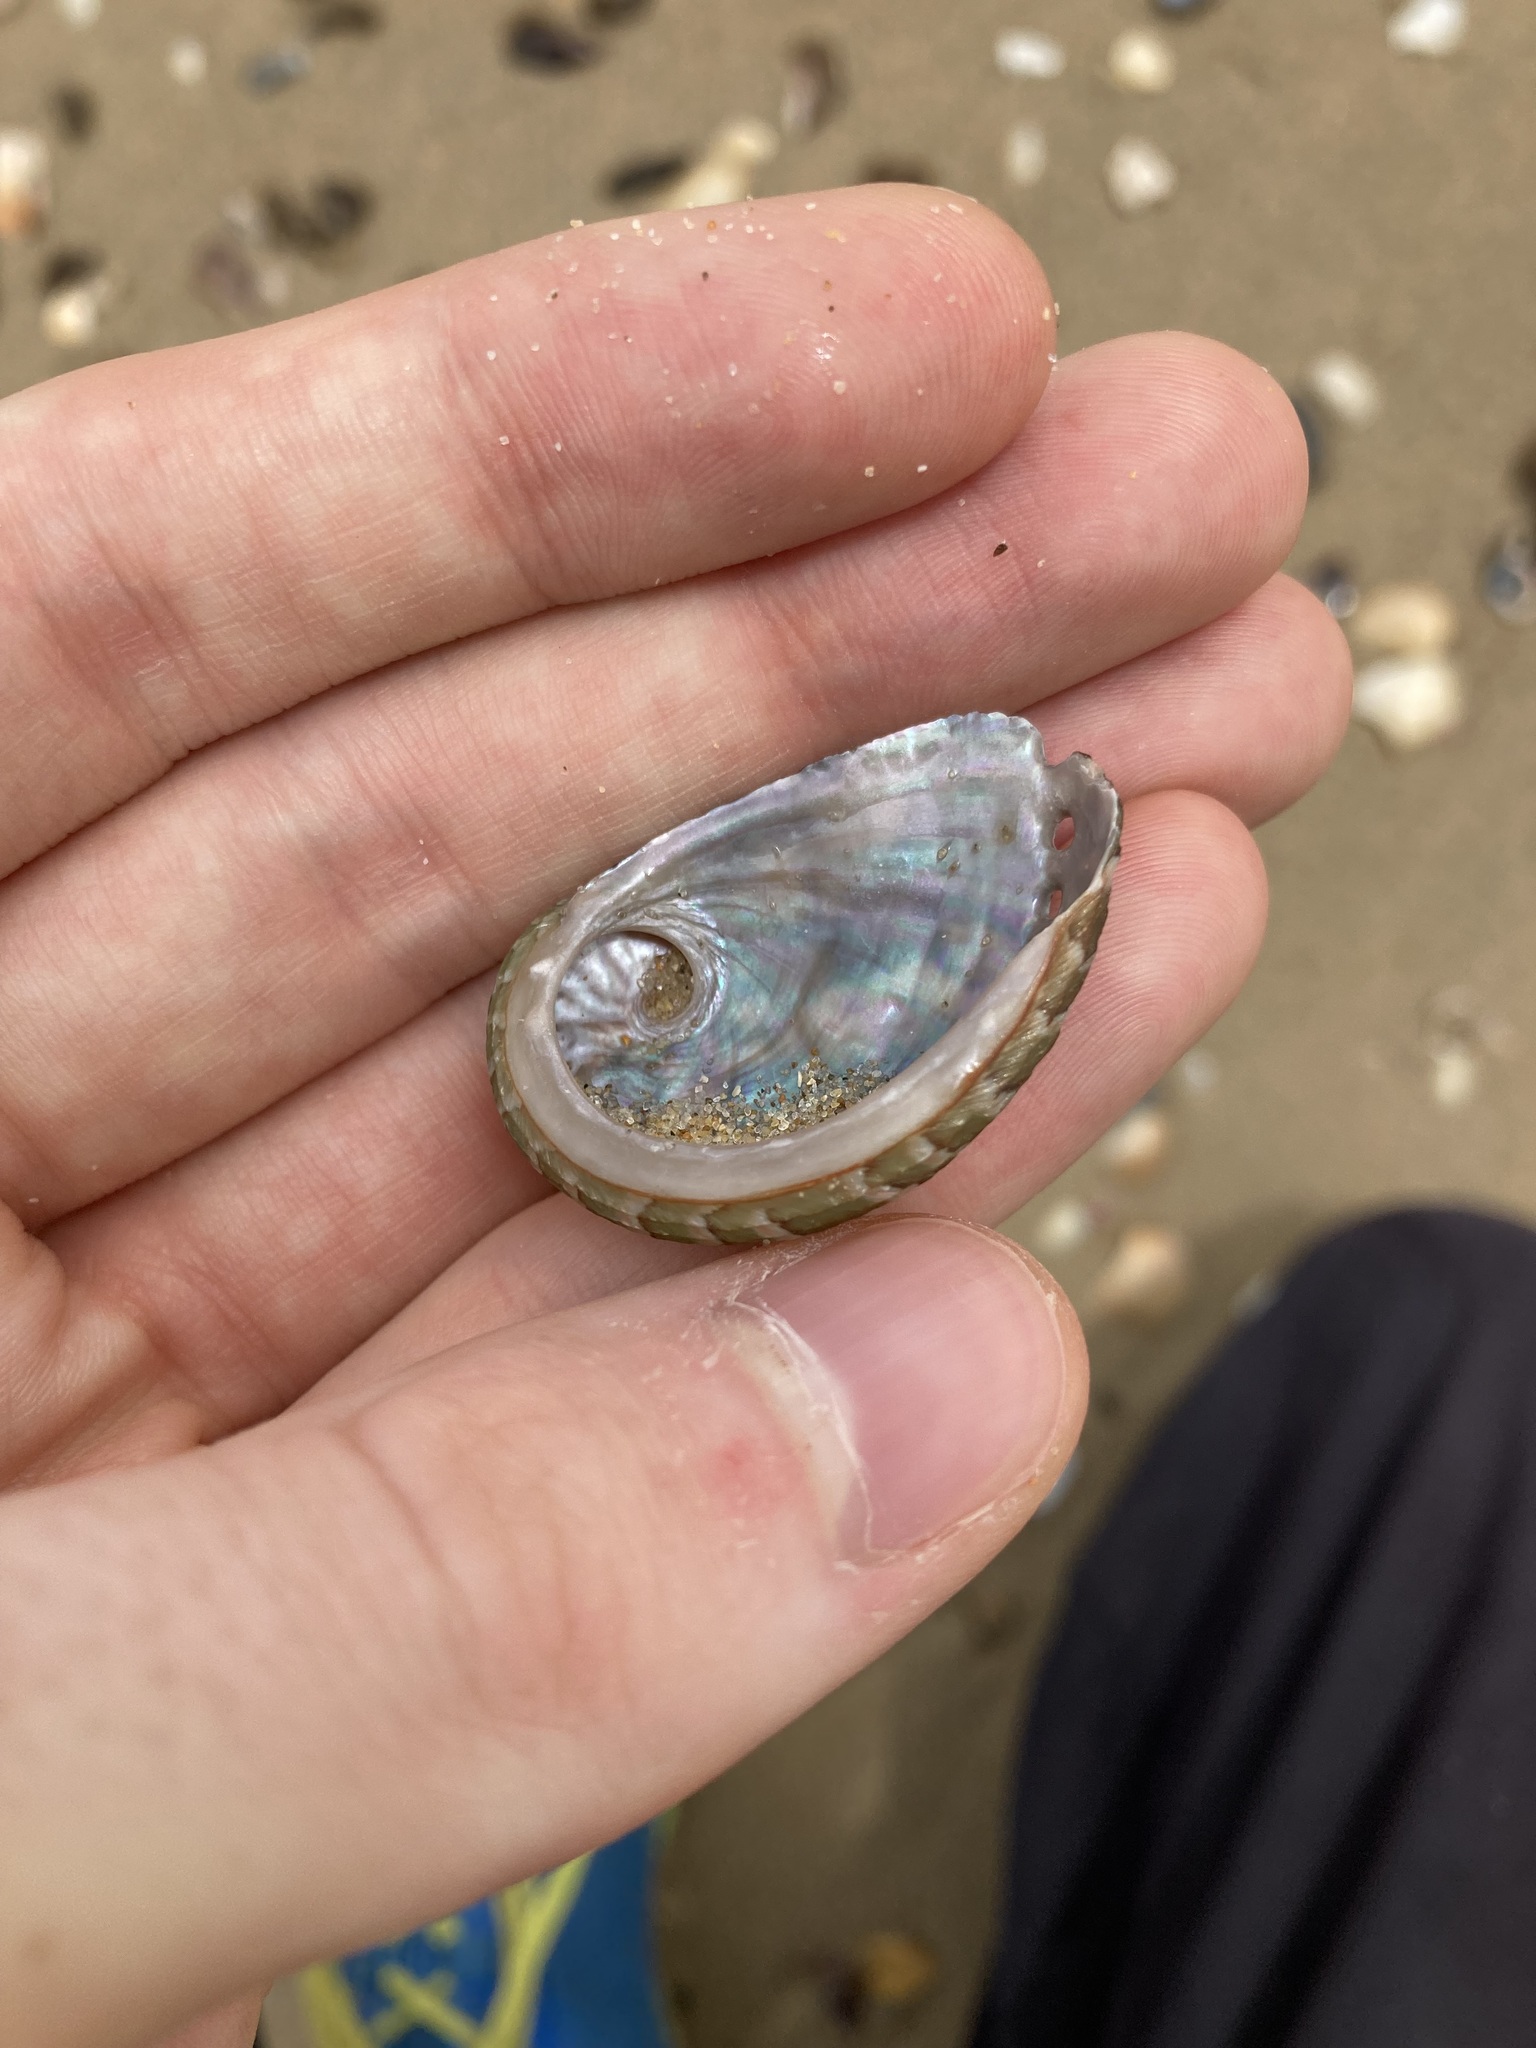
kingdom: Animalia
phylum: Mollusca
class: Gastropoda
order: Lepetellida
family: Haliotidae
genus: Haliotis
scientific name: Haliotis coccoradiata
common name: Reddish-rayed abalone
